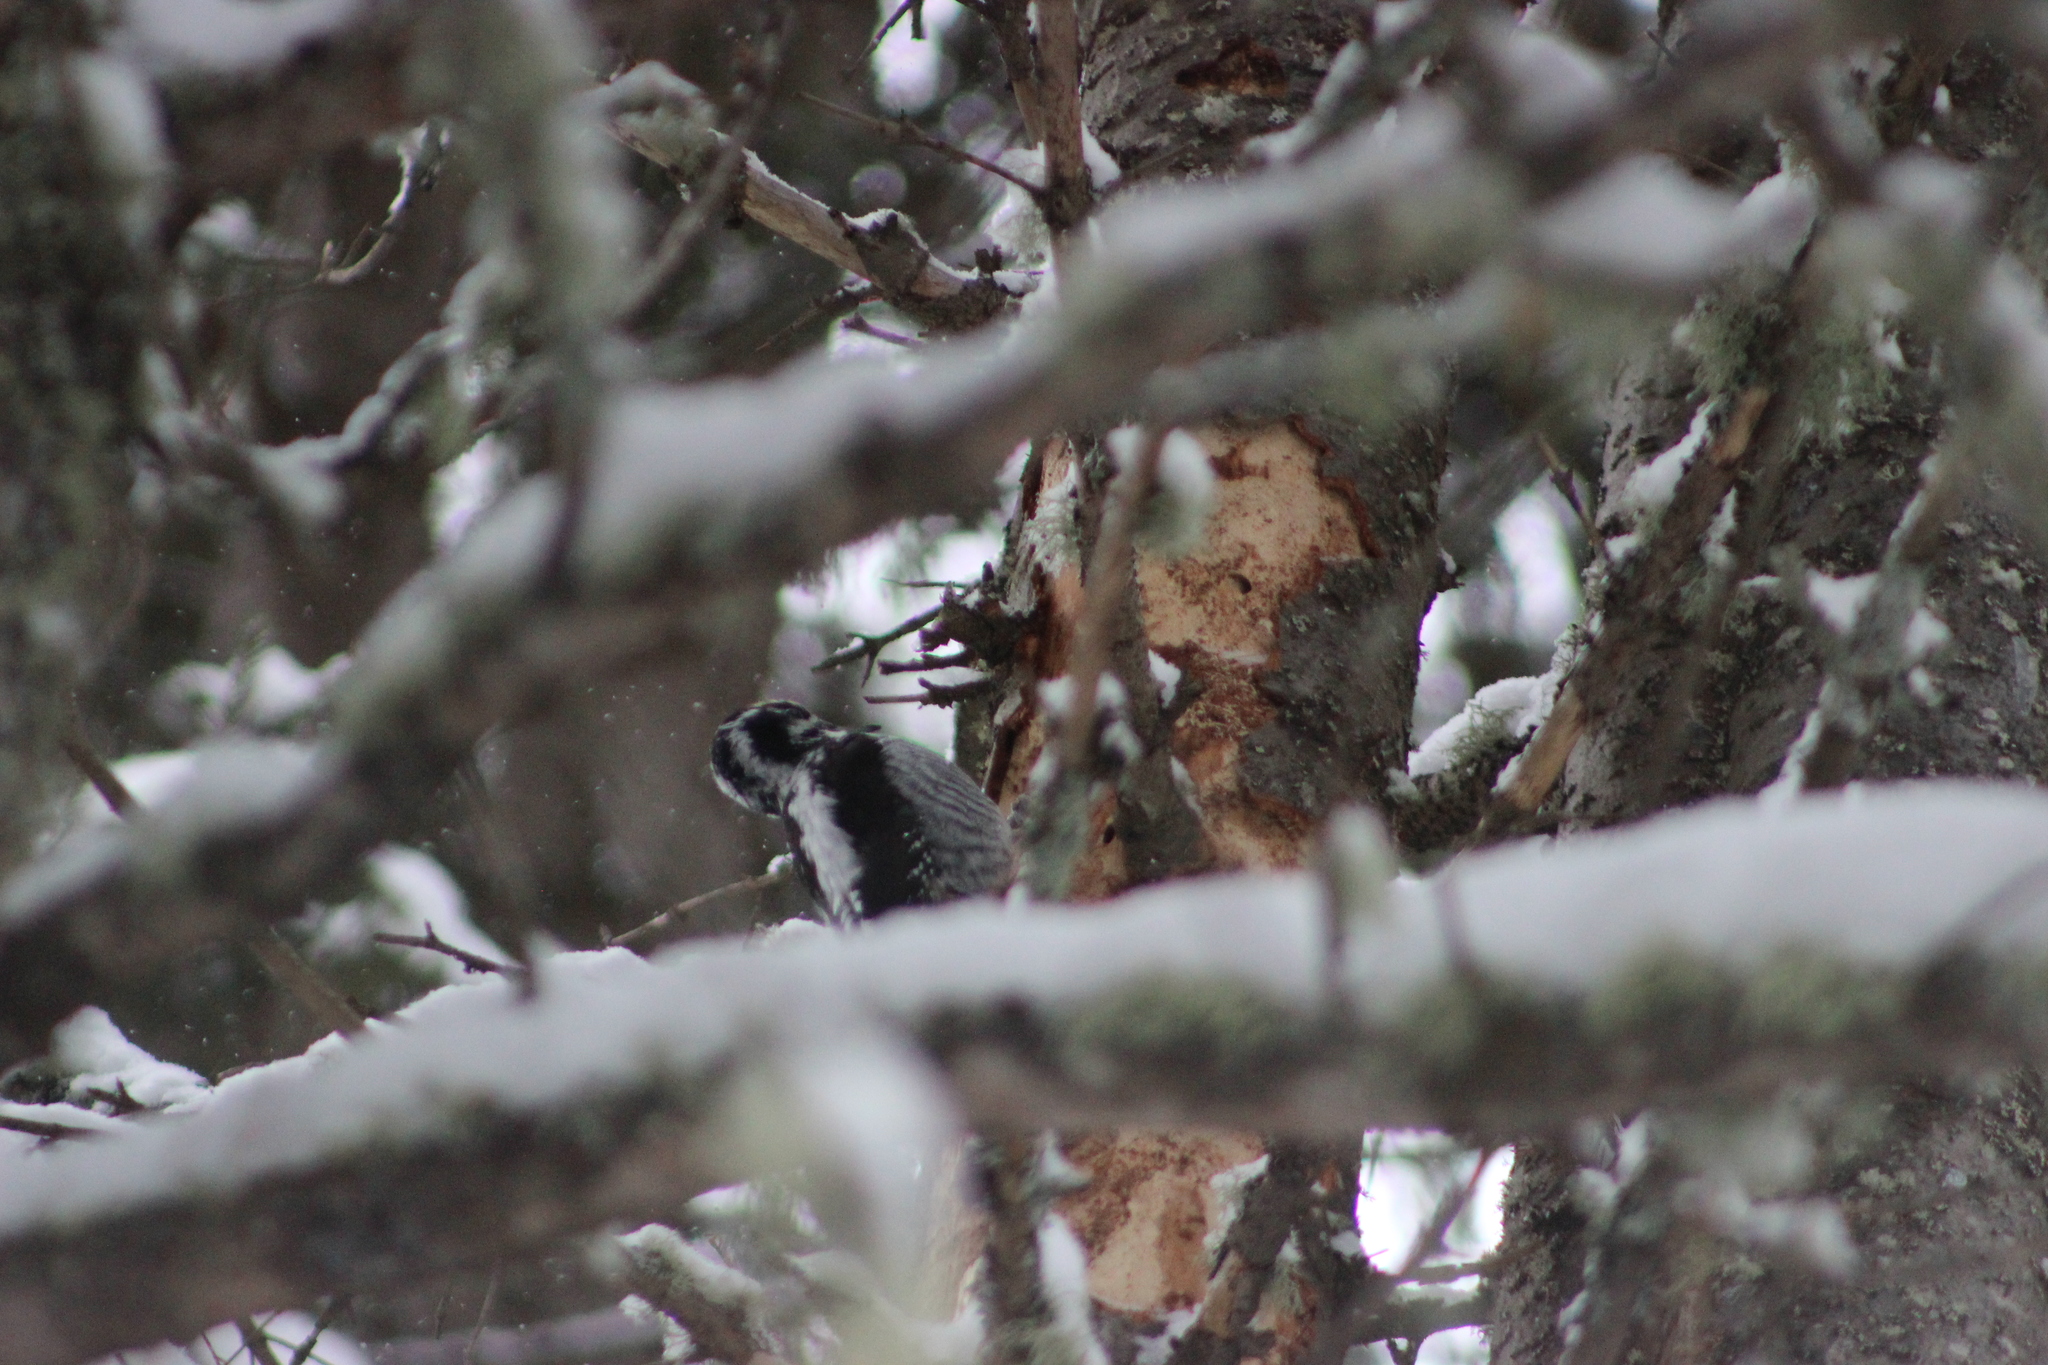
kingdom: Animalia
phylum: Chordata
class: Aves
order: Piciformes
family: Picidae
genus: Picoides
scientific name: Picoides tridactylus
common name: Eurasian three-toed woodpecker
